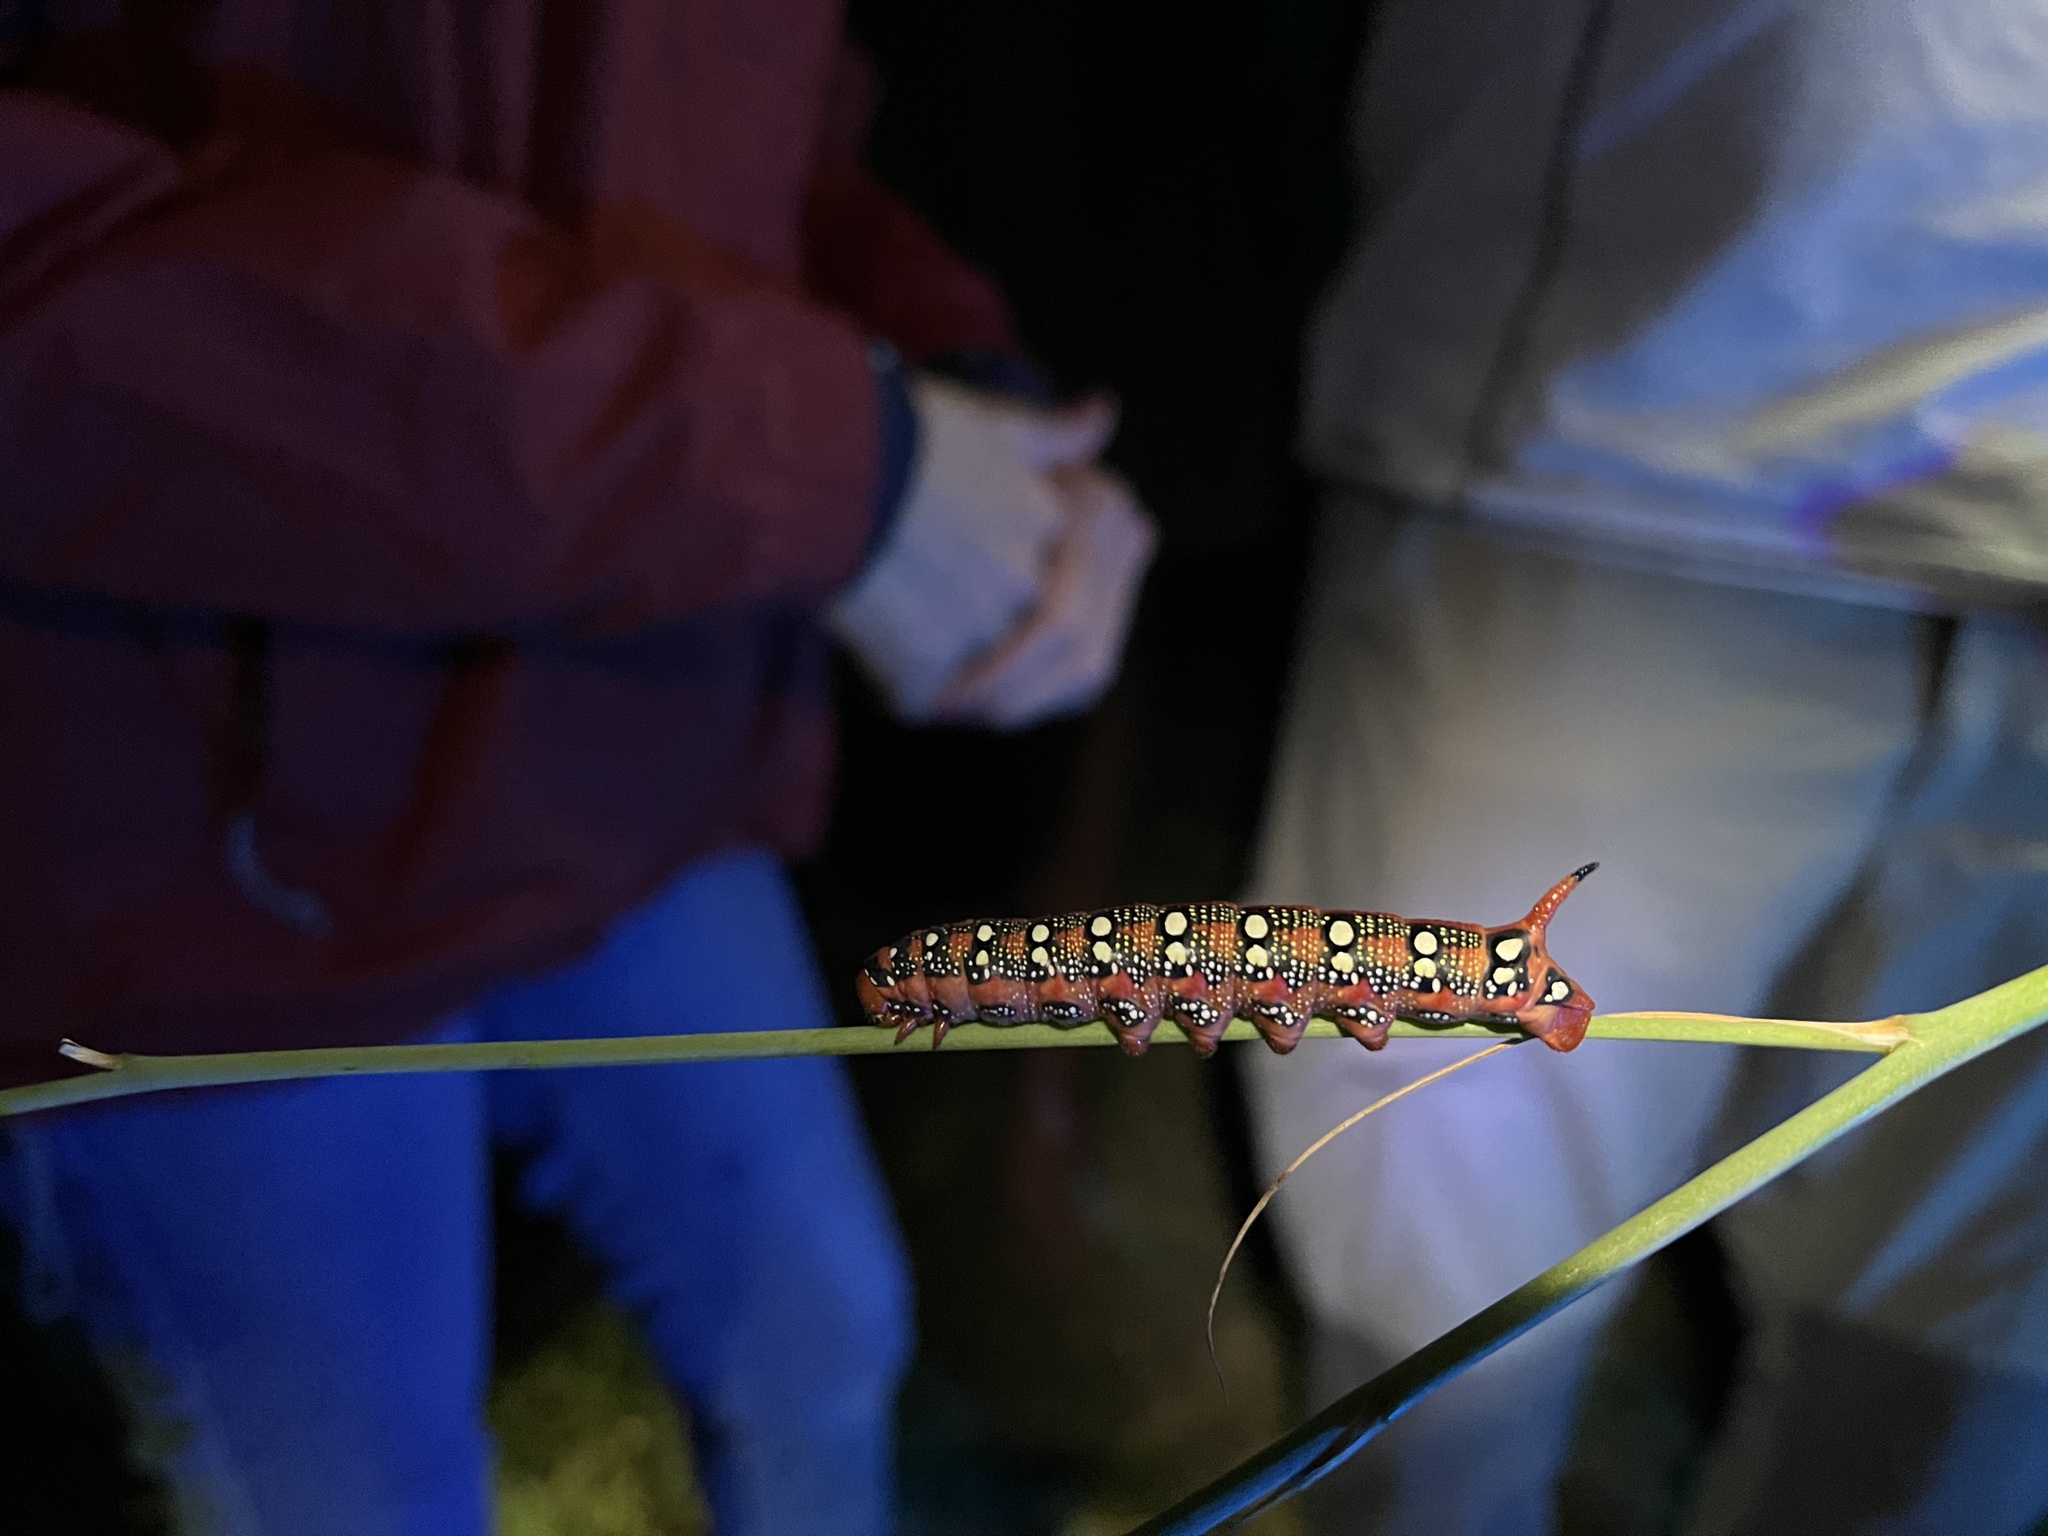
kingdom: Animalia
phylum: Arthropoda
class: Insecta
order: Lepidoptera
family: Sphingidae
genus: Hyles
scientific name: Hyles euphorbiae
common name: Spurge hawk-moth
